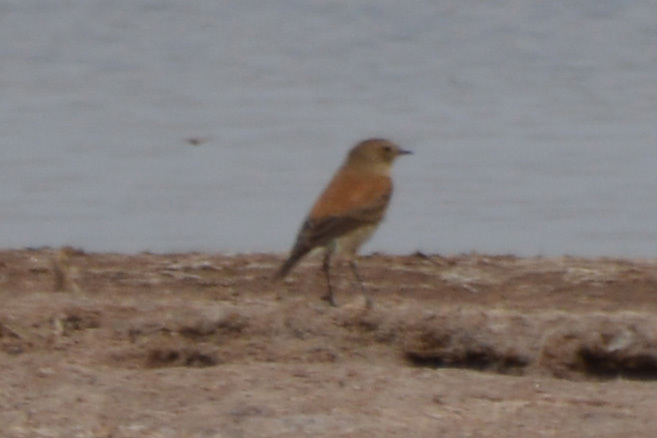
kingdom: Animalia
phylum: Chordata
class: Aves
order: Passeriformes
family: Tyrannidae
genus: Lessonia
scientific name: Lessonia rufa
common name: Austral negrito
